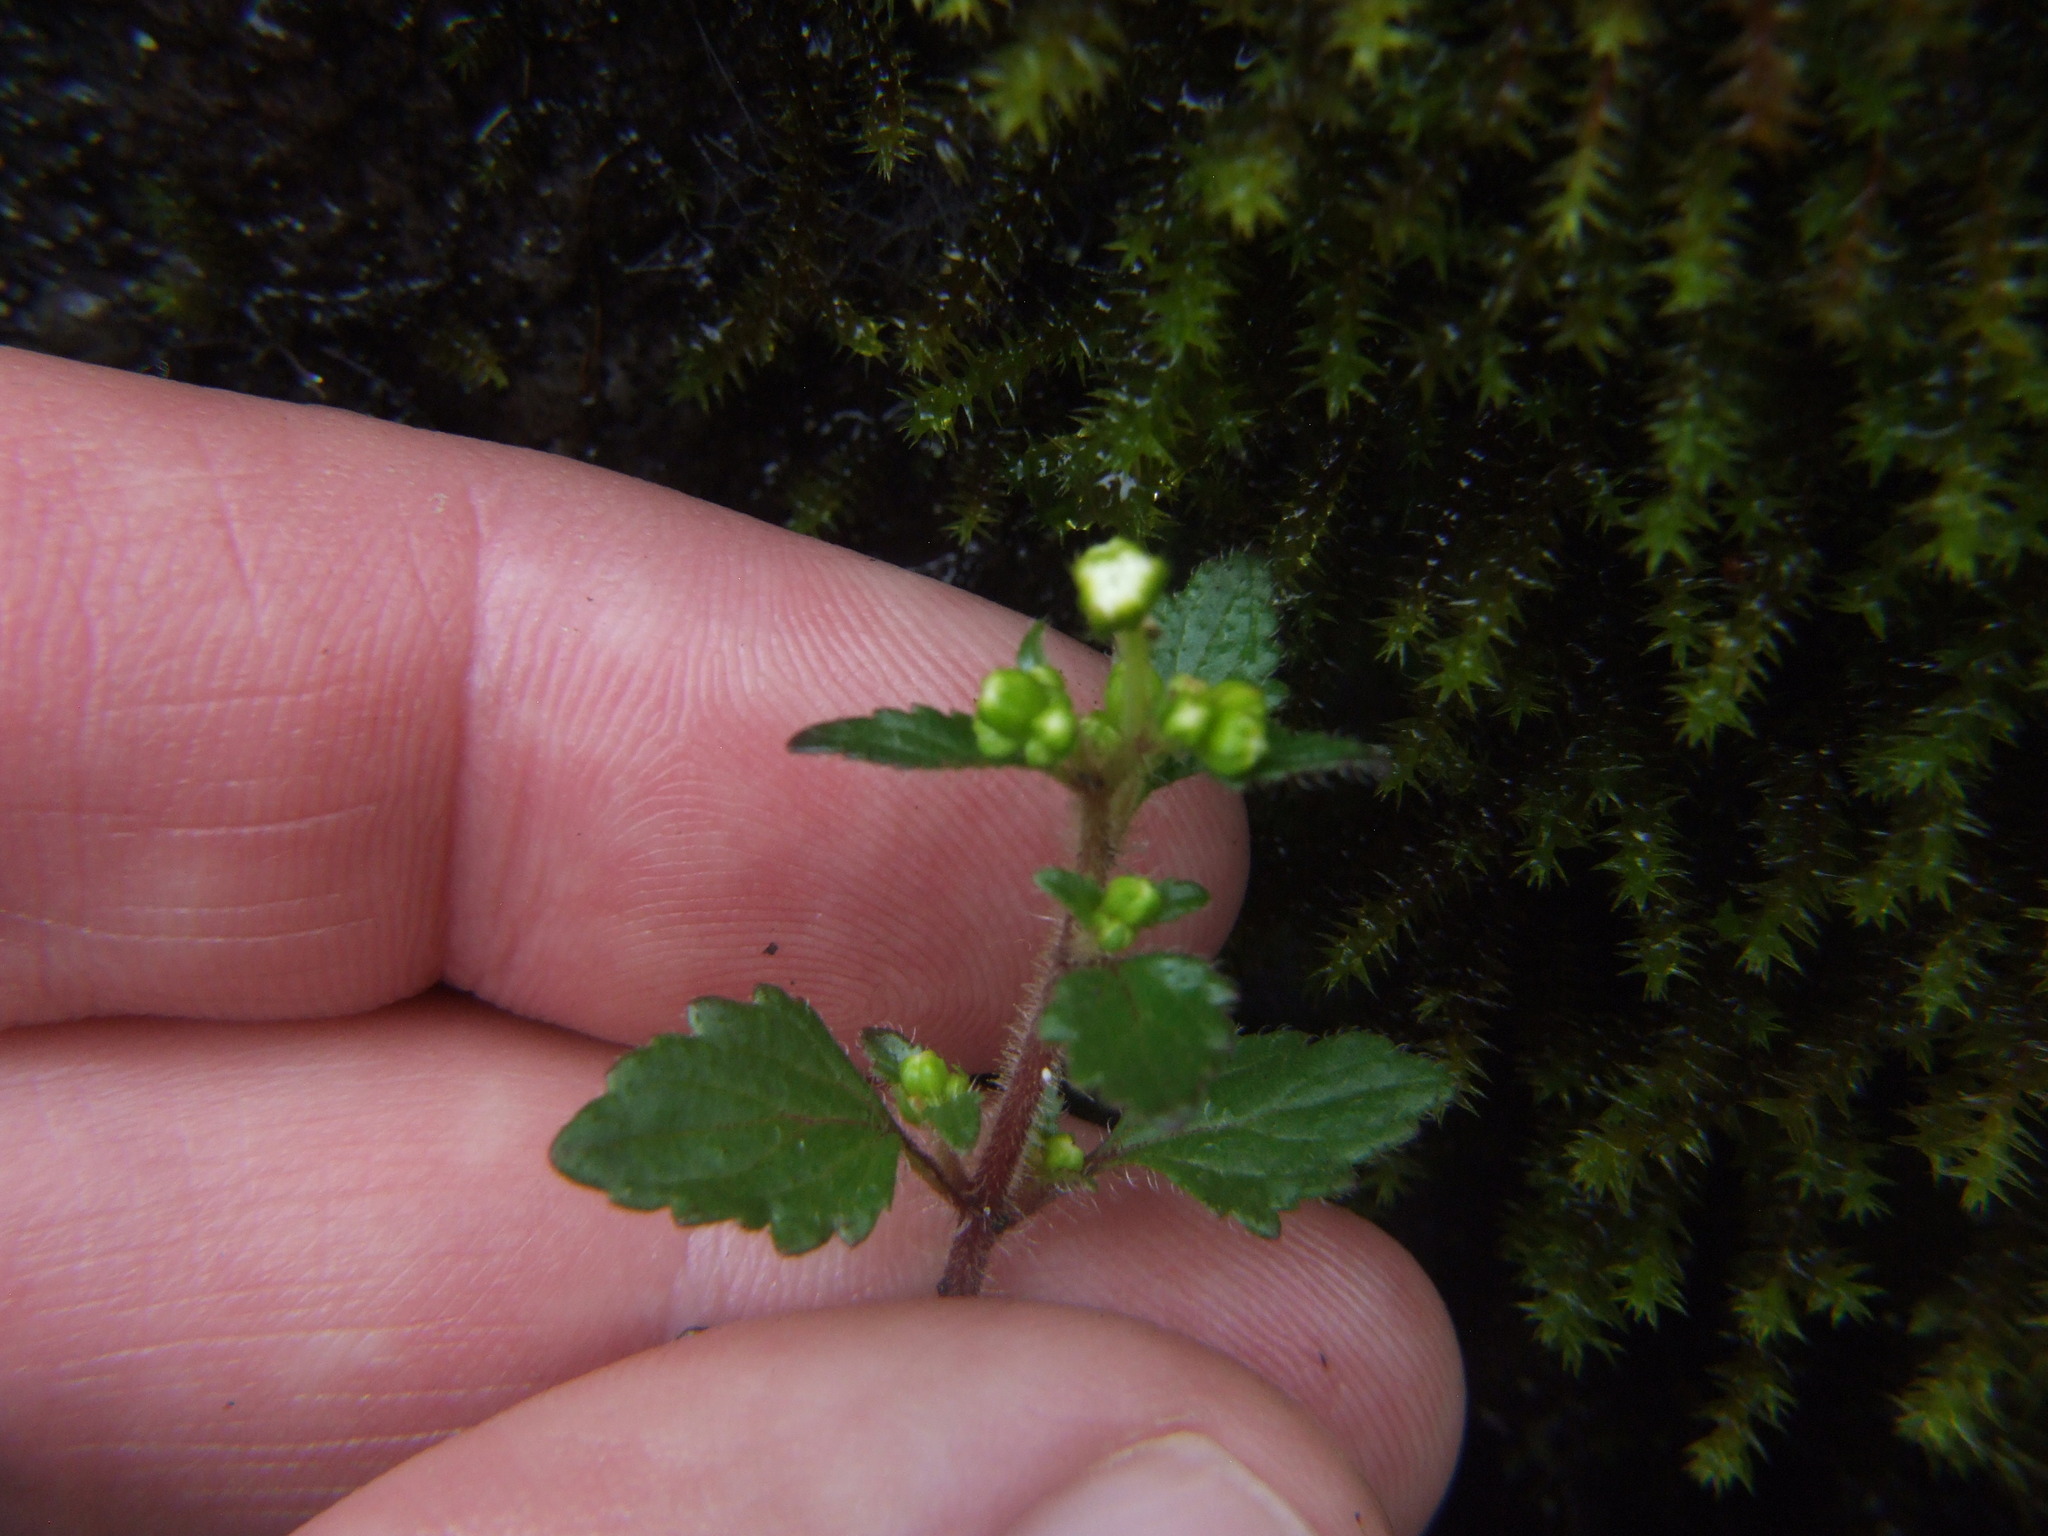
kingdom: Plantae
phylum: Tracheophyta
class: Magnoliopsida
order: Asterales
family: Asteraceae
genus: Ellenbergia
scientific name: Ellenbergia glandulata
